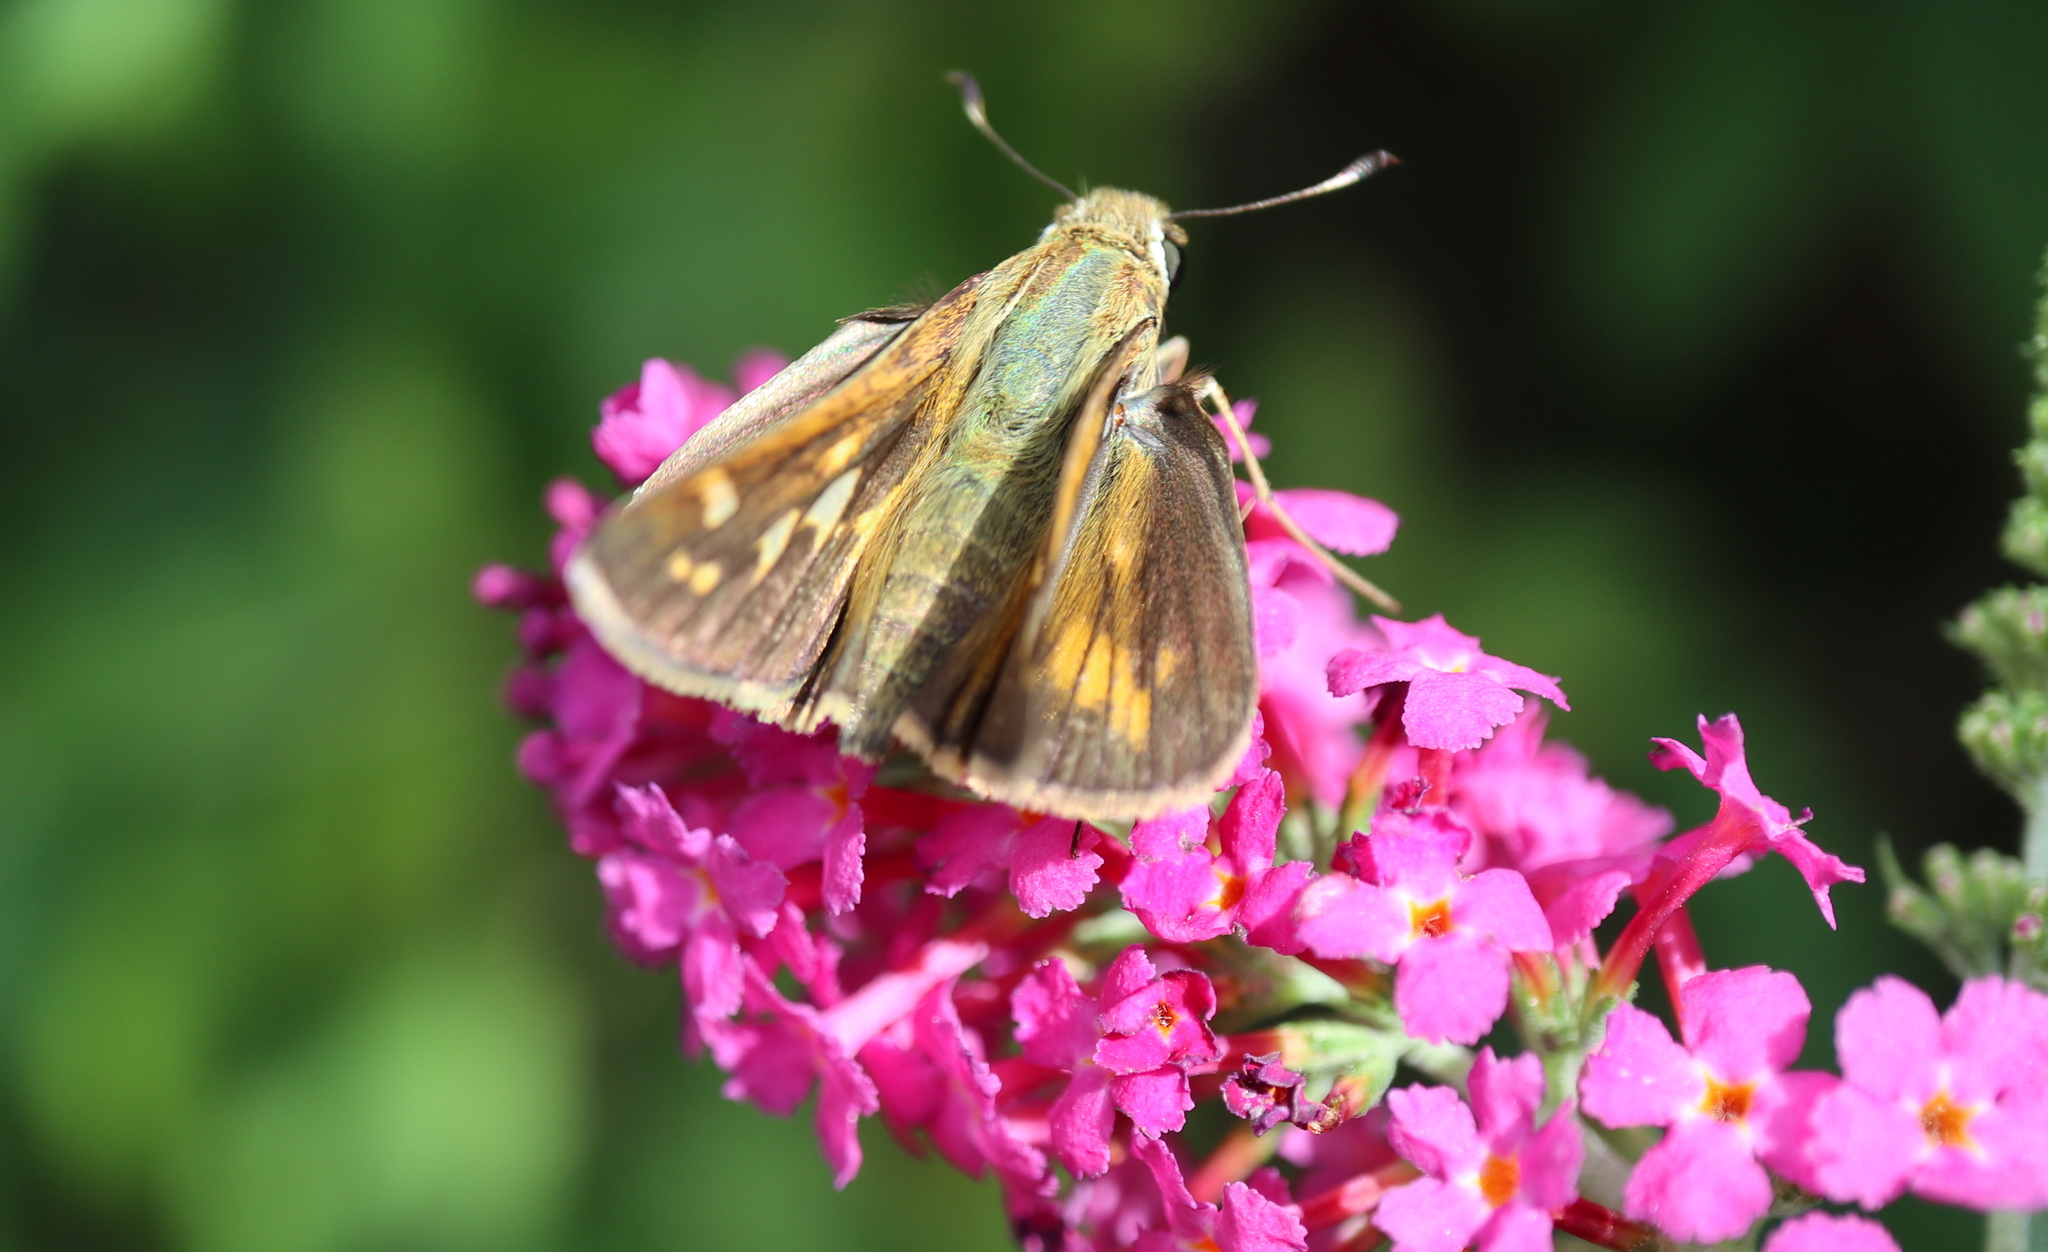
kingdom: Animalia
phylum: Arthropoda
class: Insecta
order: Lepidoptera
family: Hesperiidae
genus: Atalopedes
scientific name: Atalopedes
